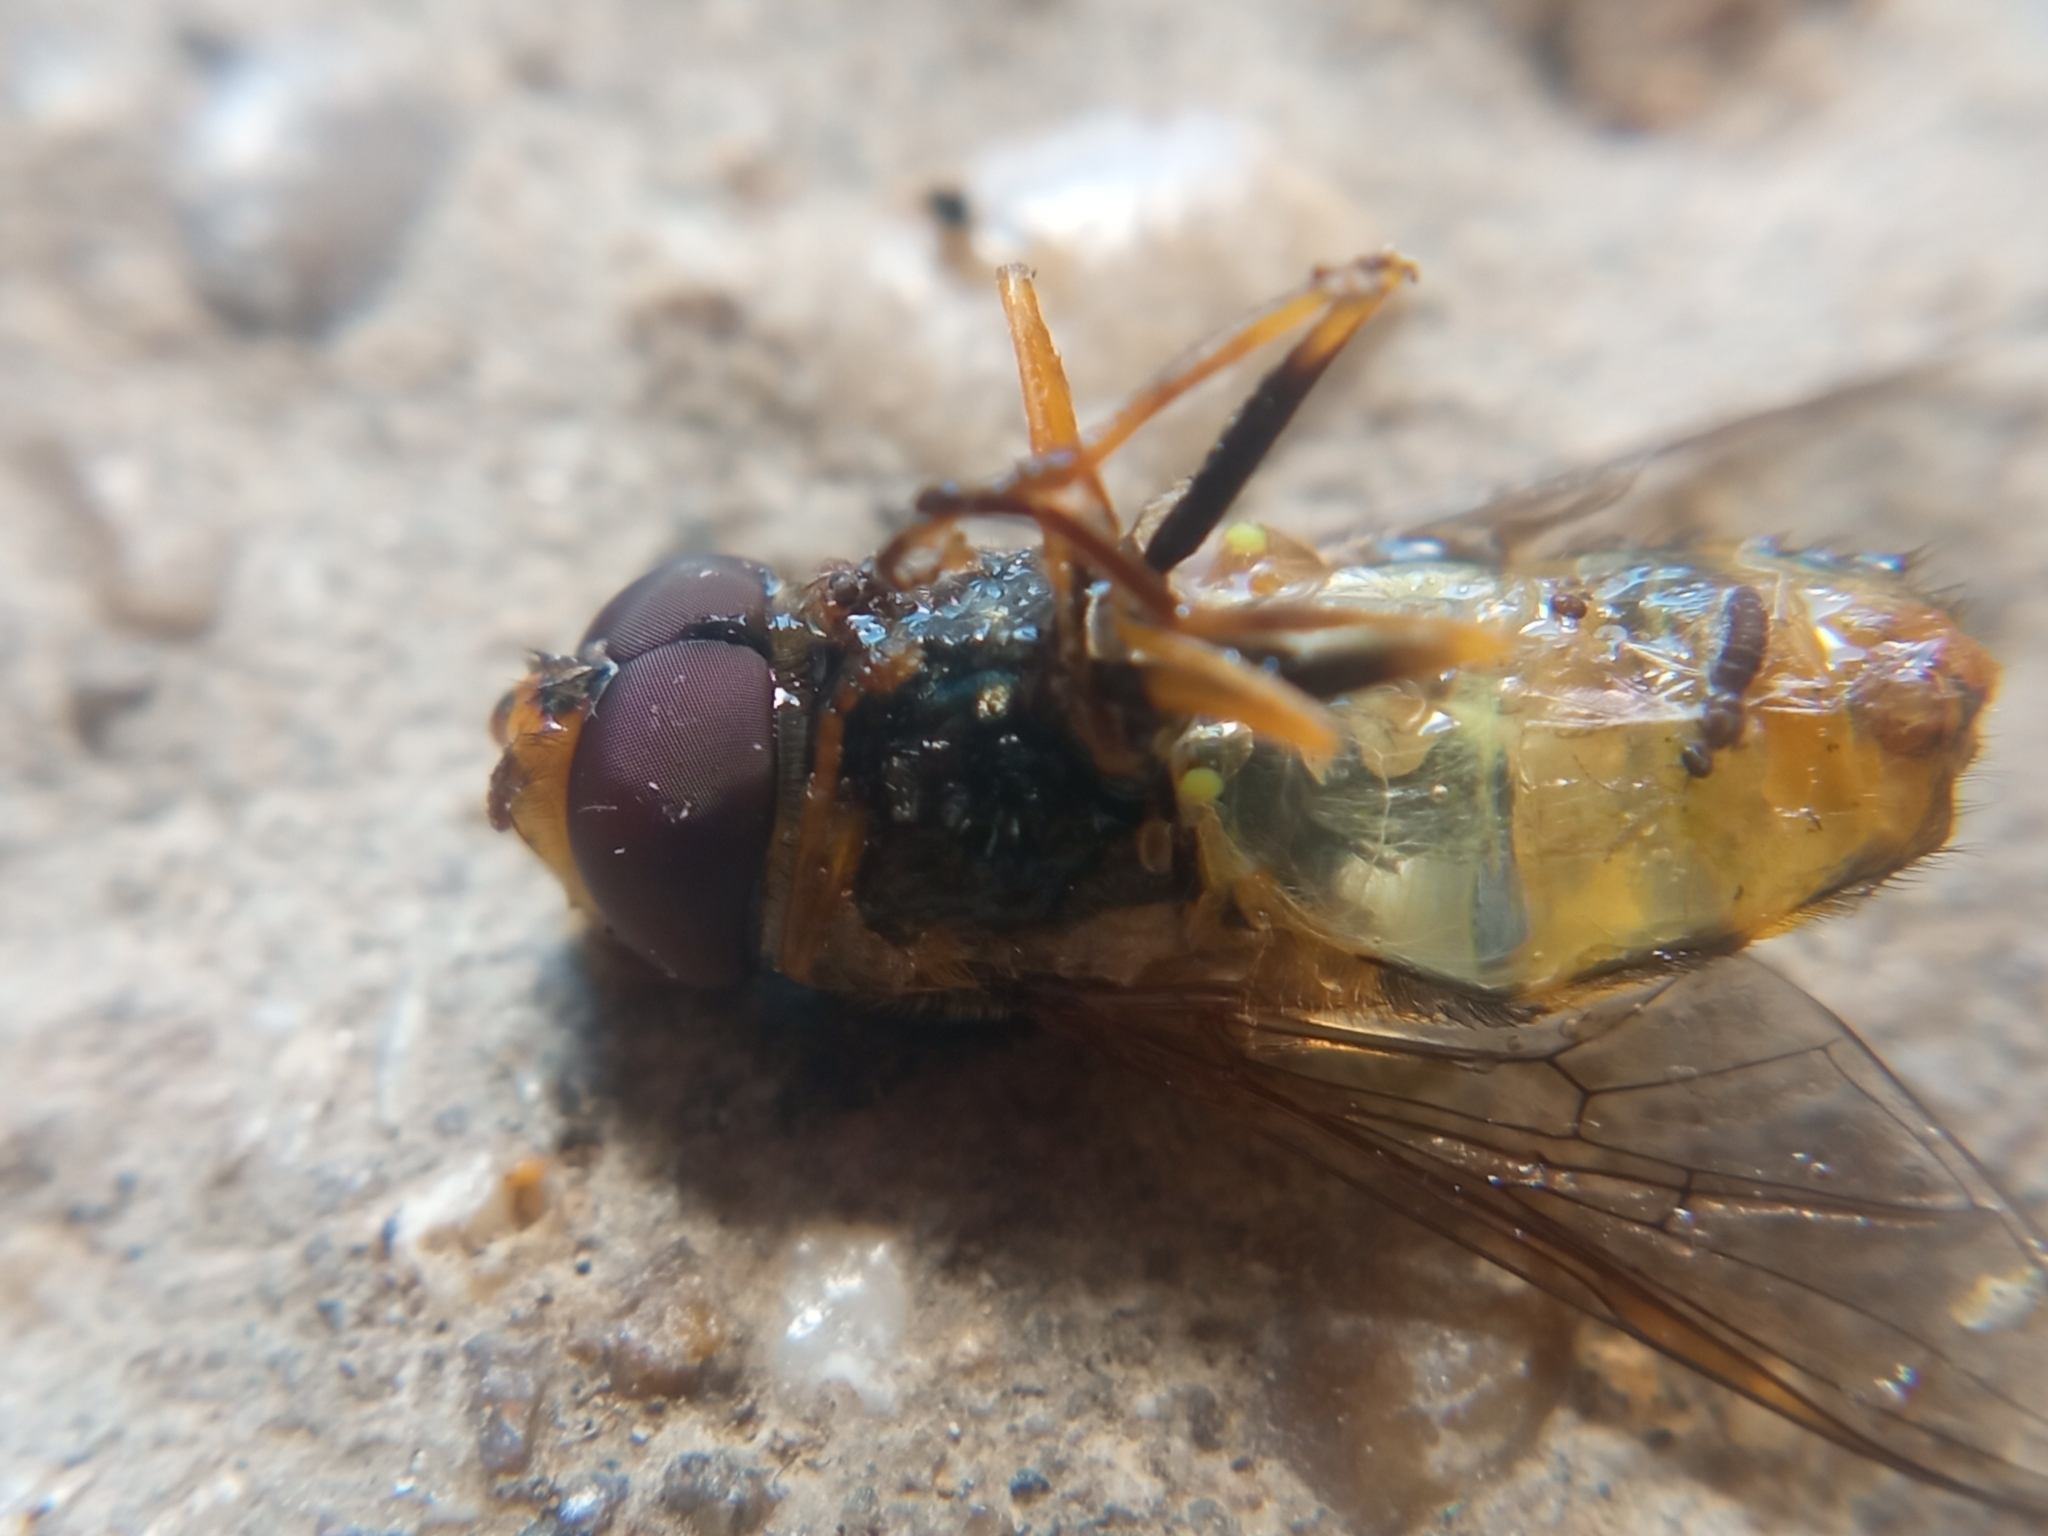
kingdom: Animalia
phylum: Arthropoda
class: Insecta
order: Diptera
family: Syrphidae
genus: Syrphus
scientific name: Syrphus
